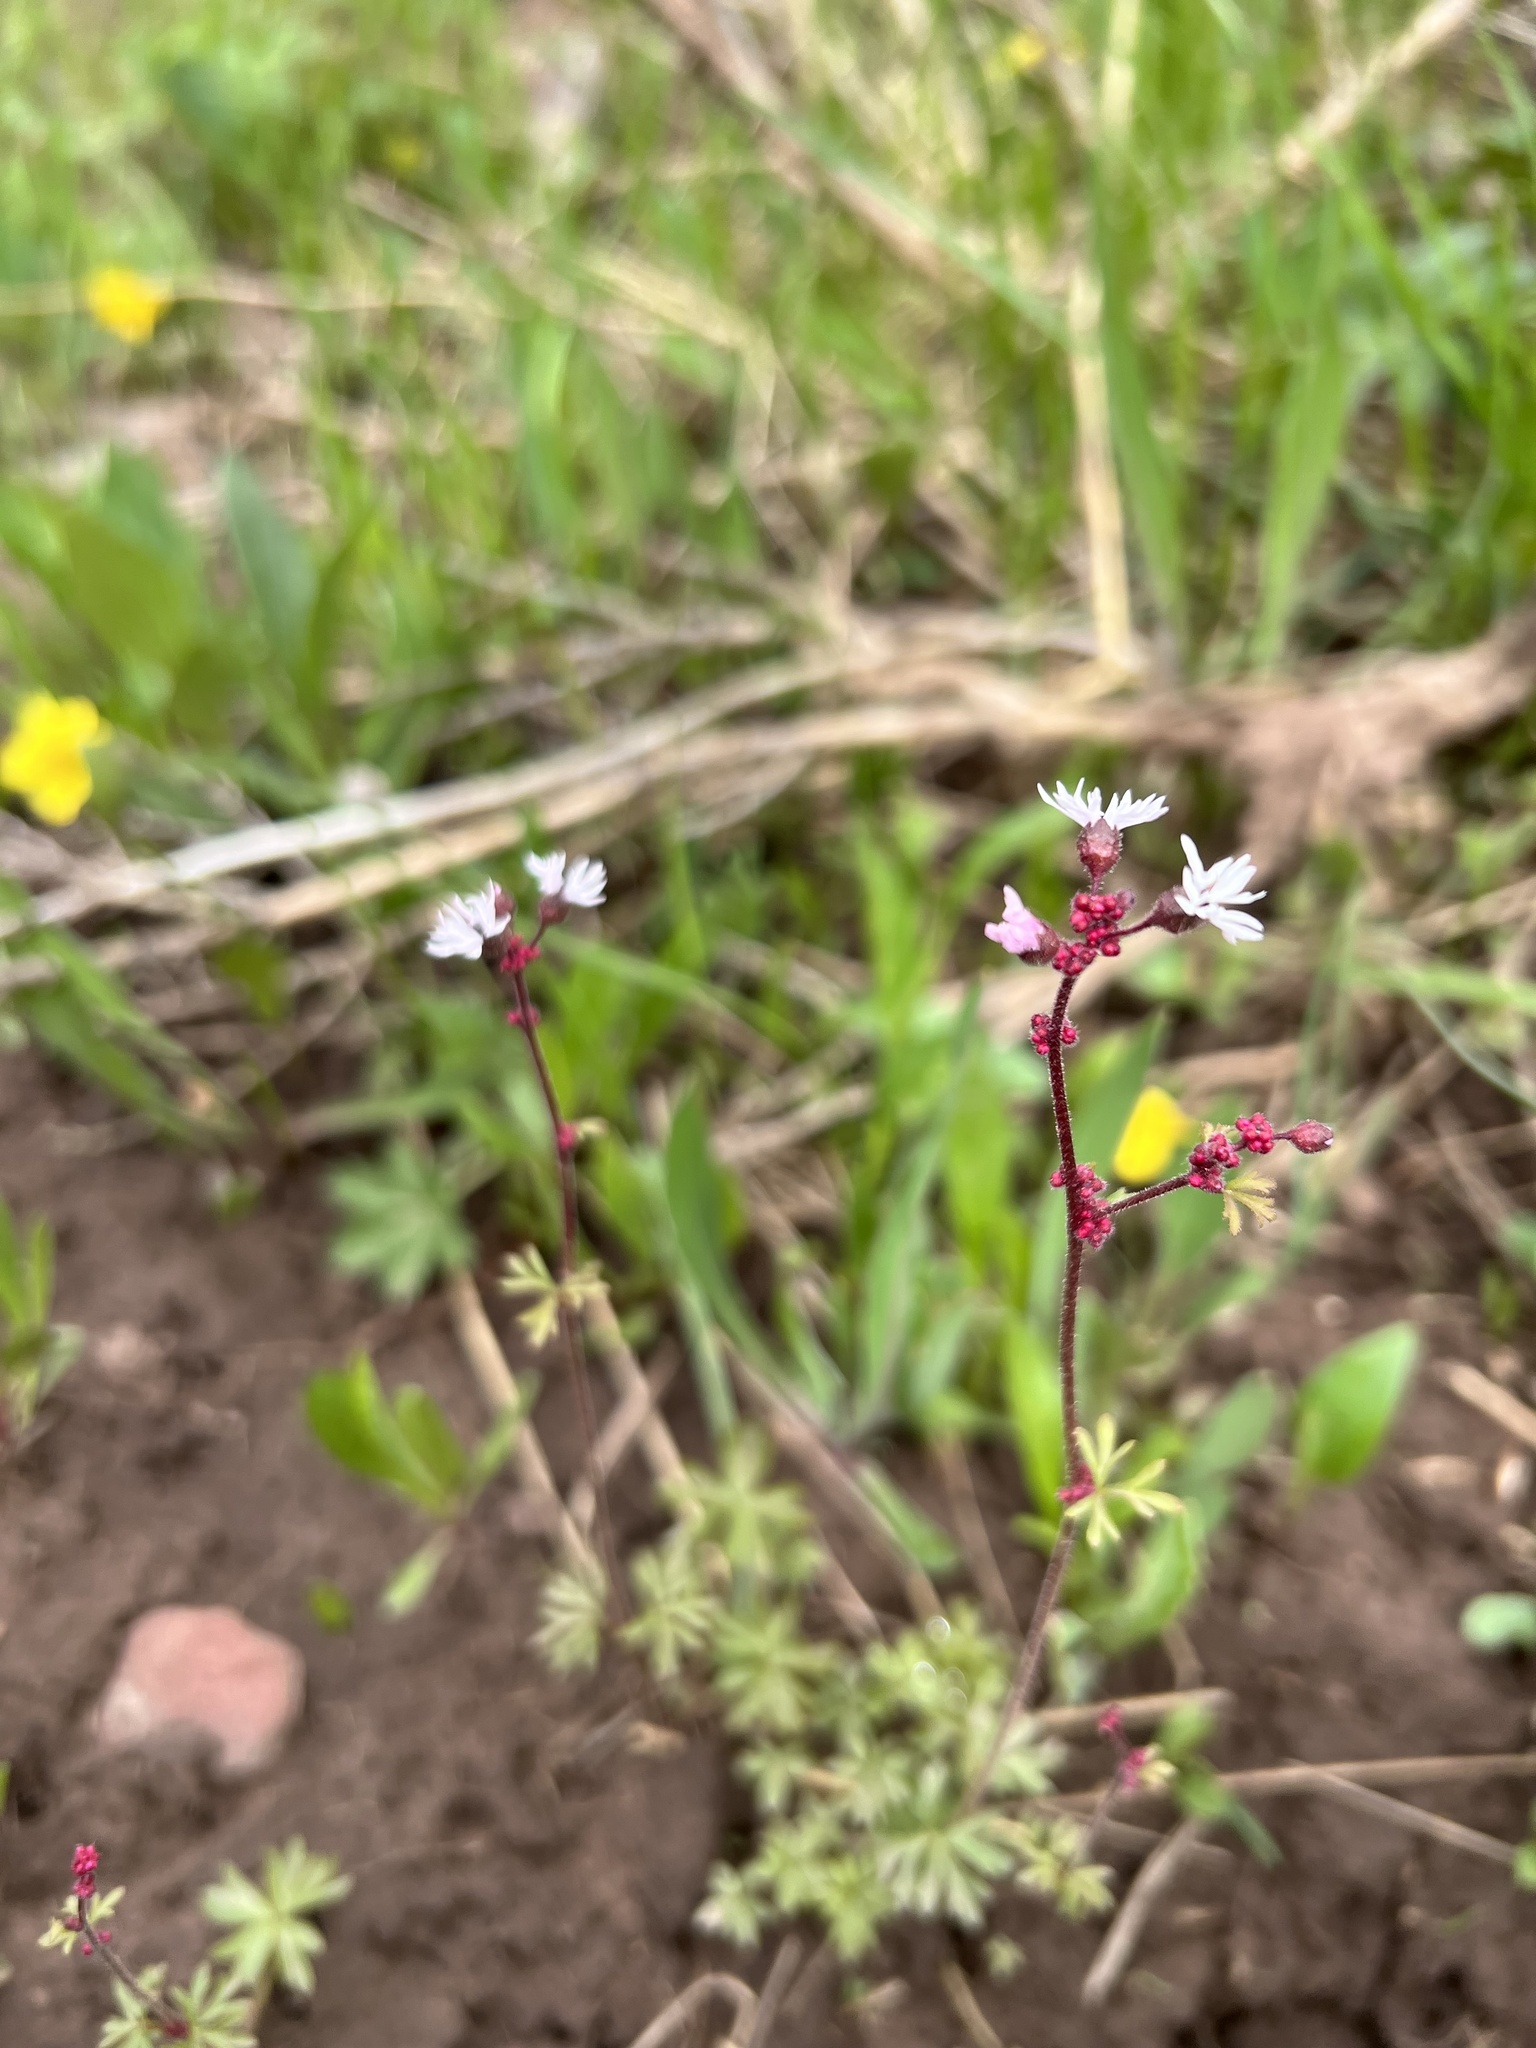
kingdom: Plantae
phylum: Tracheophyta
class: Magnoliopsida
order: Saxifragales
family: Saxifragaceae
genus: Lithophragma
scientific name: Lithophragma glabrum
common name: Bulbous prairie-star
